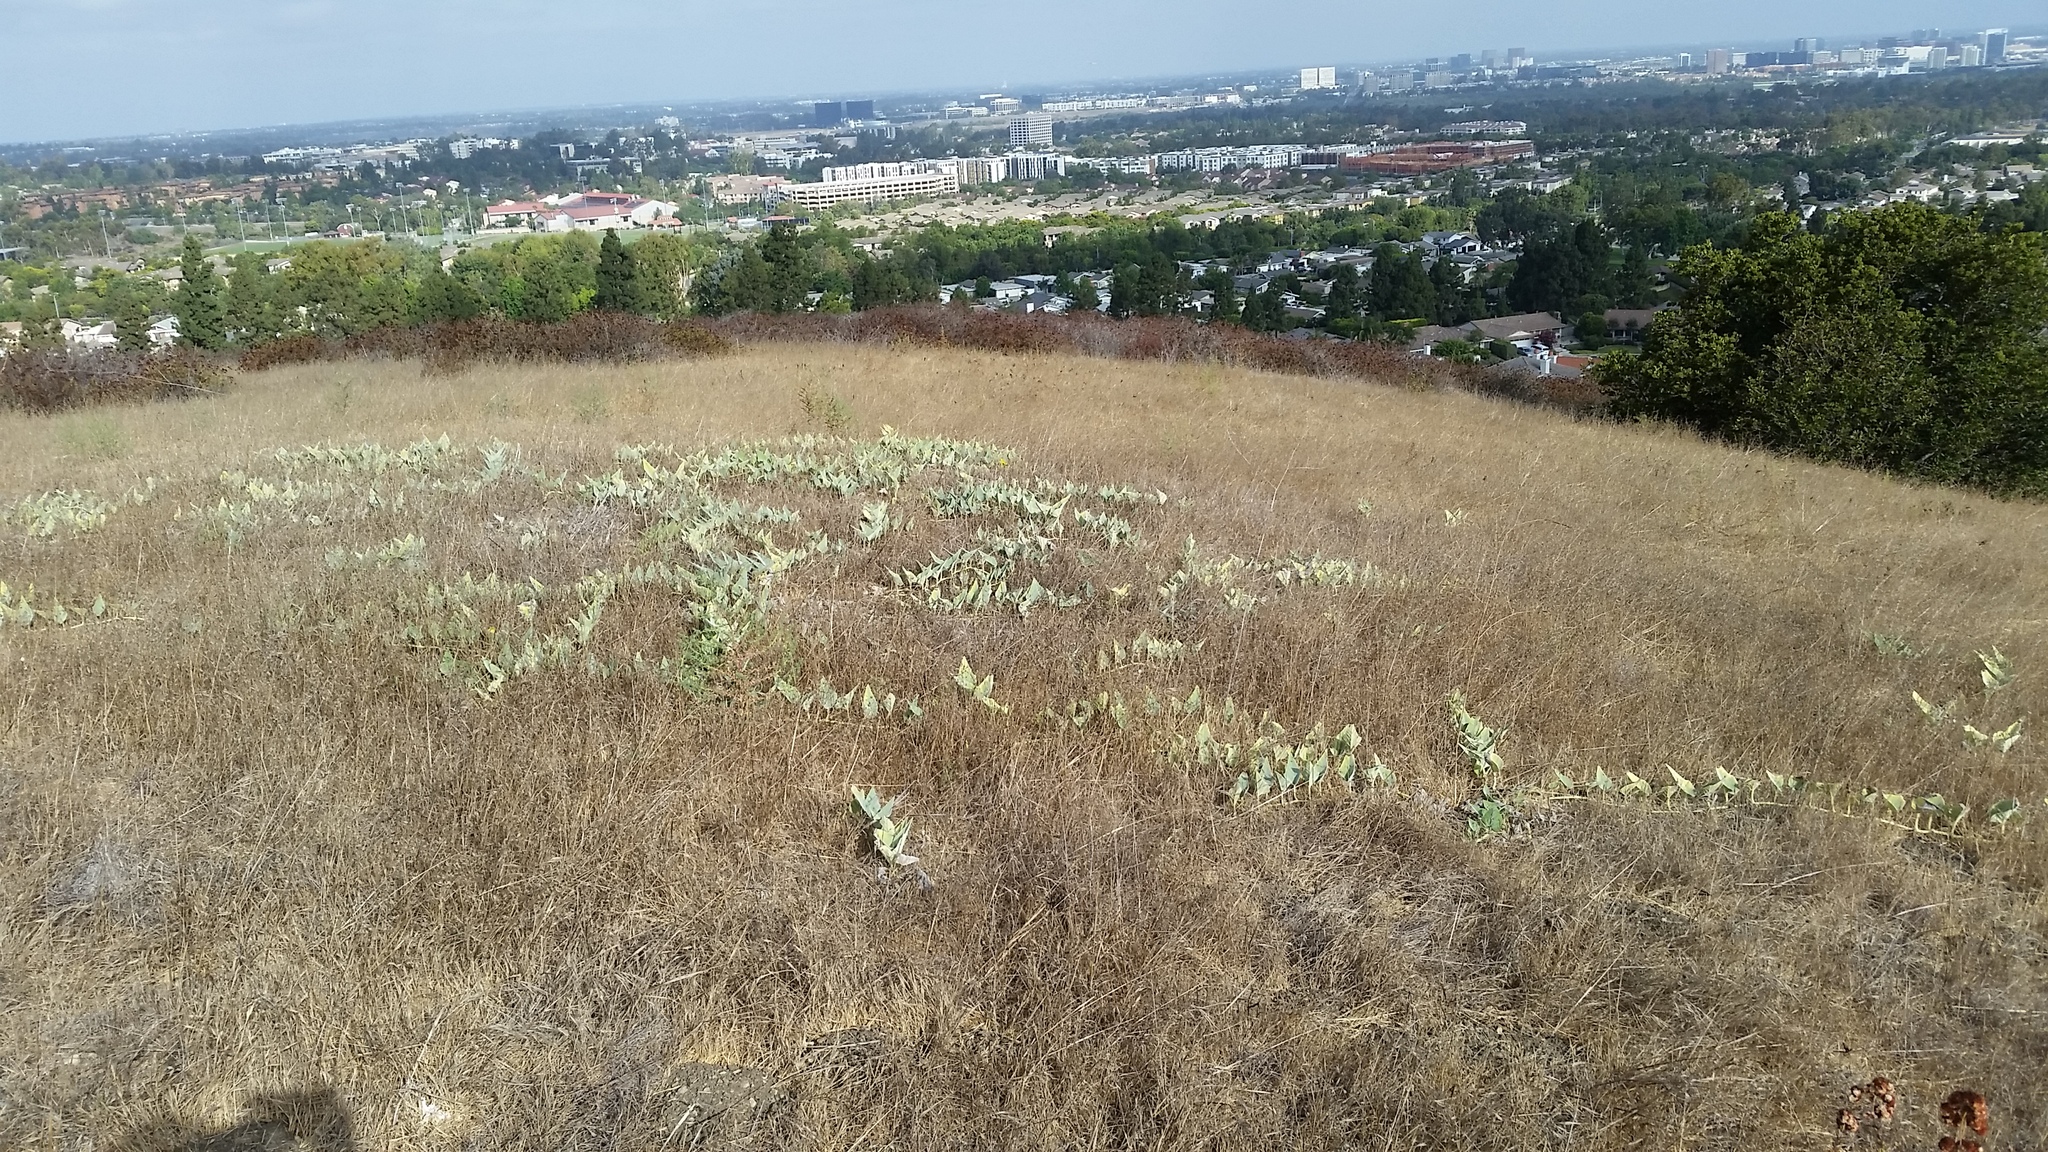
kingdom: Plantae
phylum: Tracheophyta
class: Magnoliopsida
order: Cucurbitales
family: Cucurbitaceae
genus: Cucurbita
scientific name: Cucurbita foetidissima
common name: Buffalo gourd
